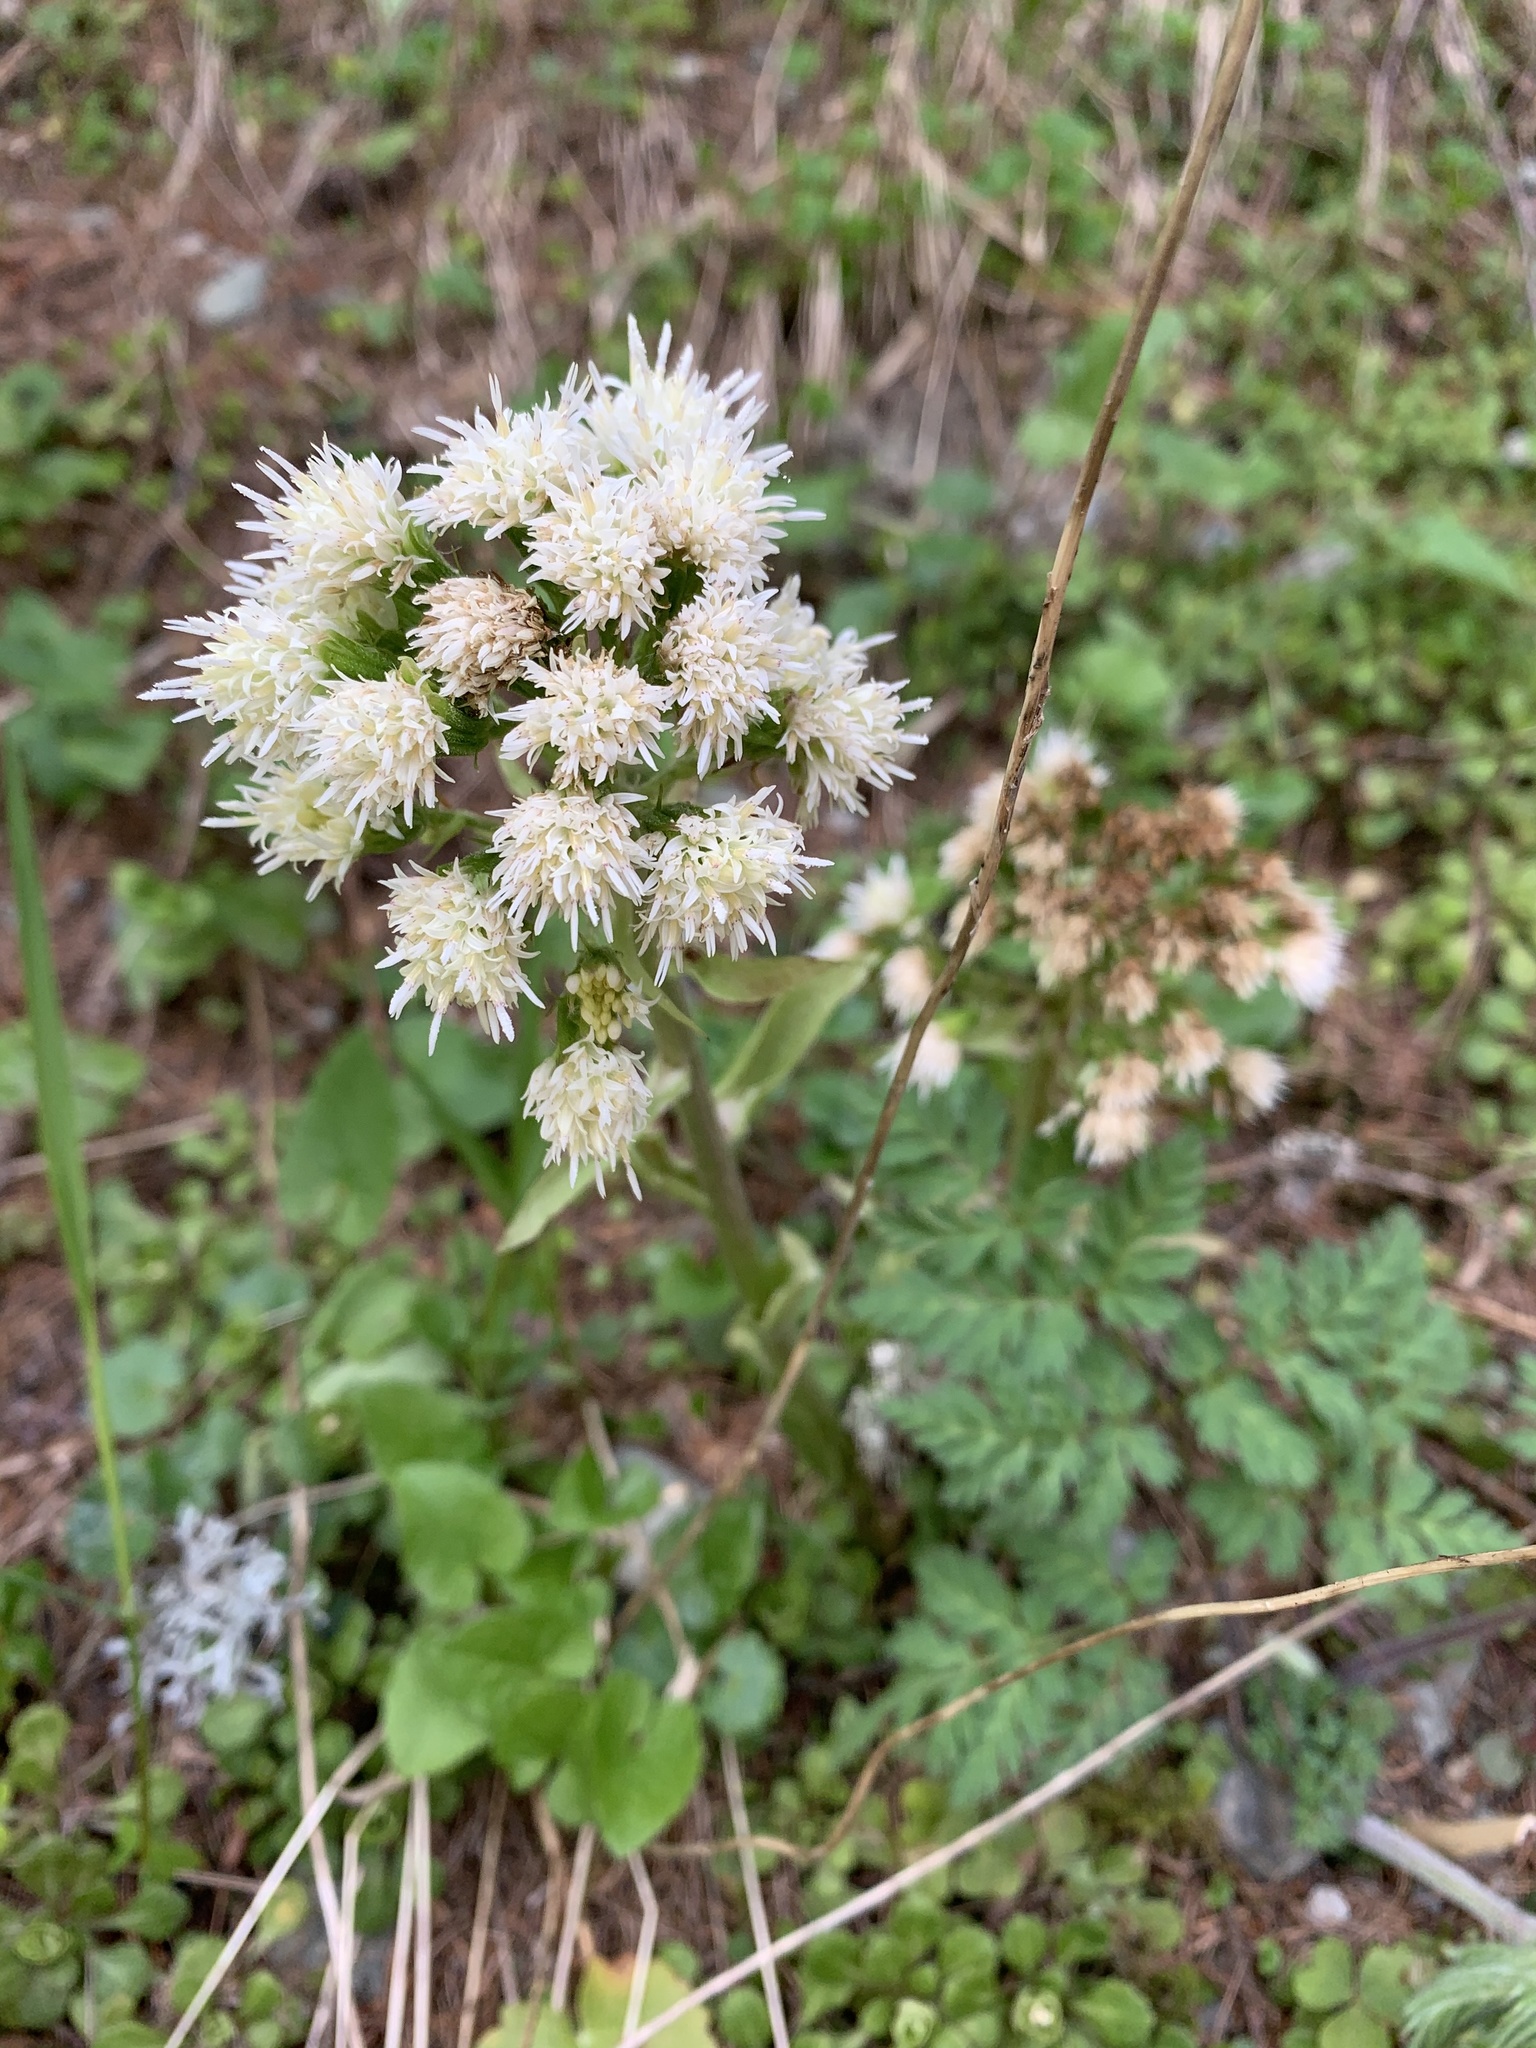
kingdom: Plantae
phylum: Tracheophyta
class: Magnoliopsida
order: Asterales
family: Asteraceae
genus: Petasites
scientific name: Petasites albus
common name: White butterbur
